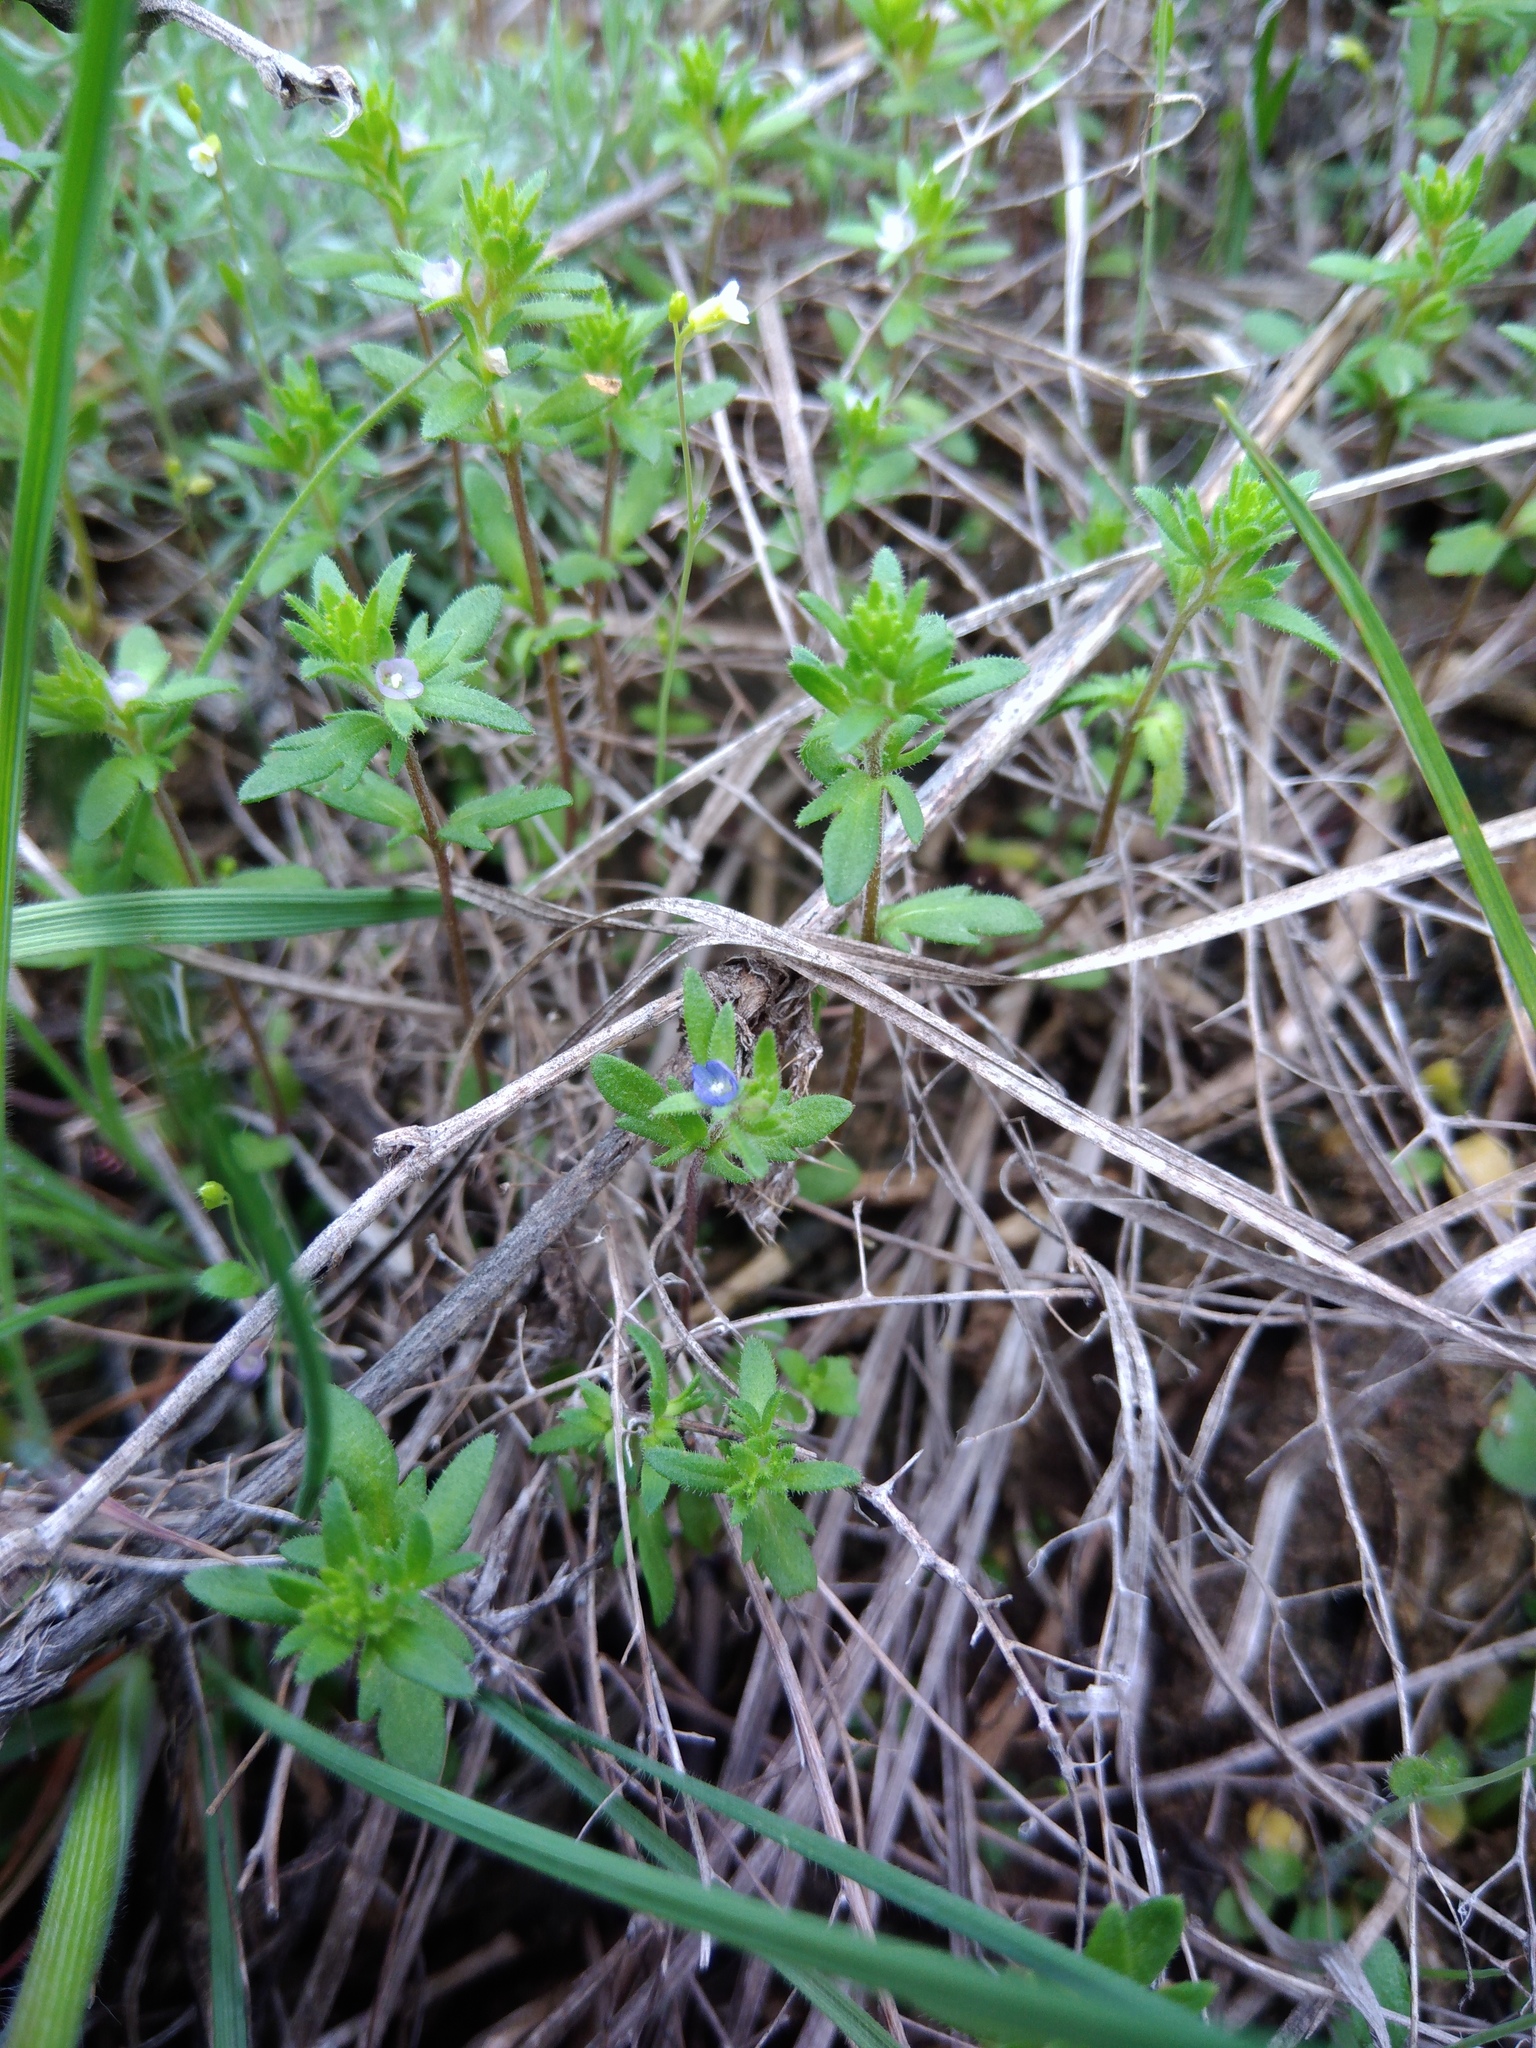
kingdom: Plantae
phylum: Tracheophyta
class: Magnoliopsida
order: Lamiales
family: Plantaginaceae
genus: Veronica
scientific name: Veronica verna
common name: Spring speedwell
